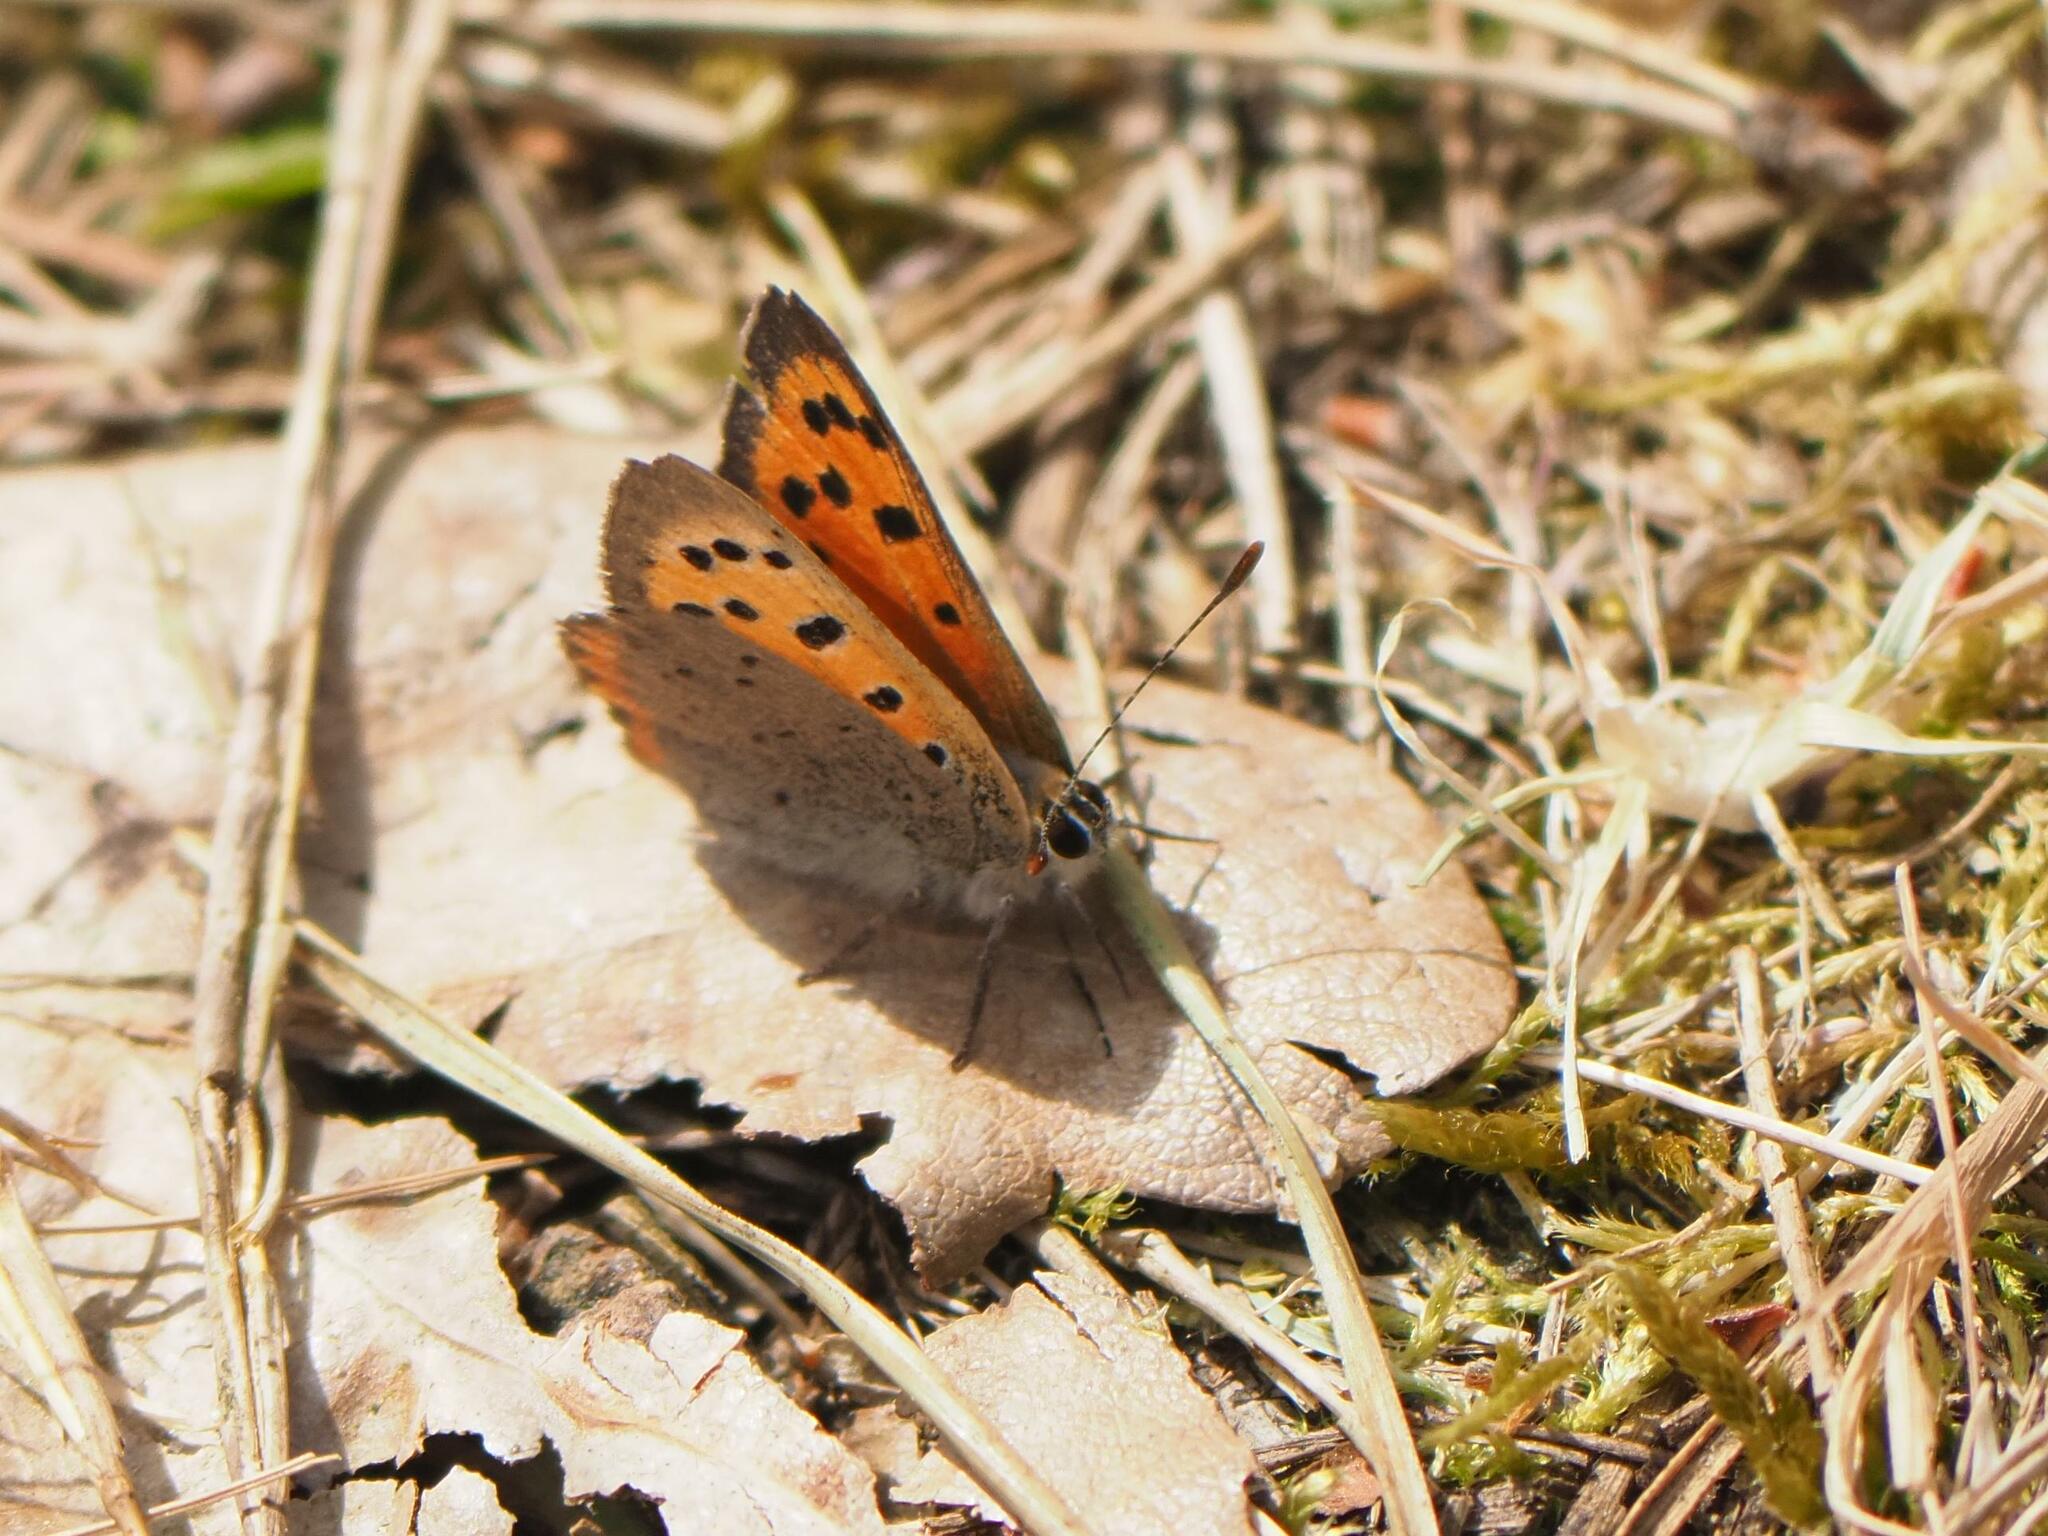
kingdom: Animalia
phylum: Arthropoda
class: Insecta
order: Lepidoptera
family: Lycaenidae
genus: Lycaena
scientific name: Lycaena phlaeas
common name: Small copper
